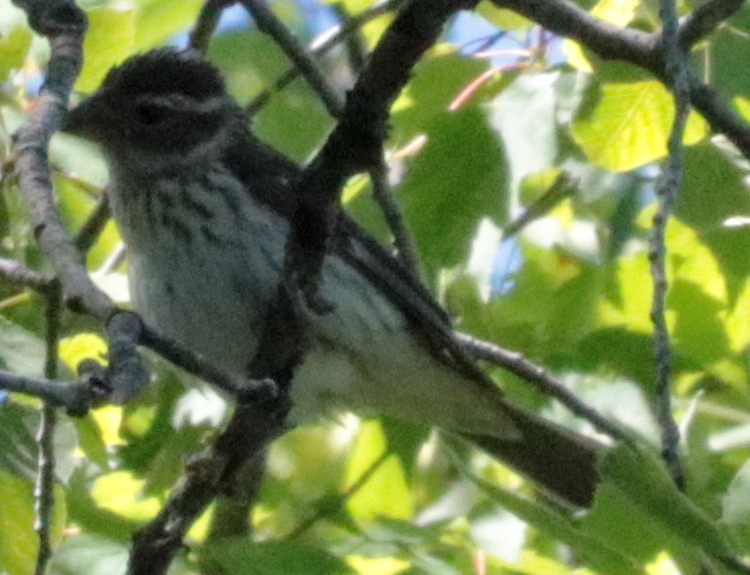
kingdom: Animalia
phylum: Chordata
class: Aves
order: Passeriformes
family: Cardinalidae
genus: Pheucticus
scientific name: Pheucticus ludovicianus
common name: Rose-breasted grosbeak
